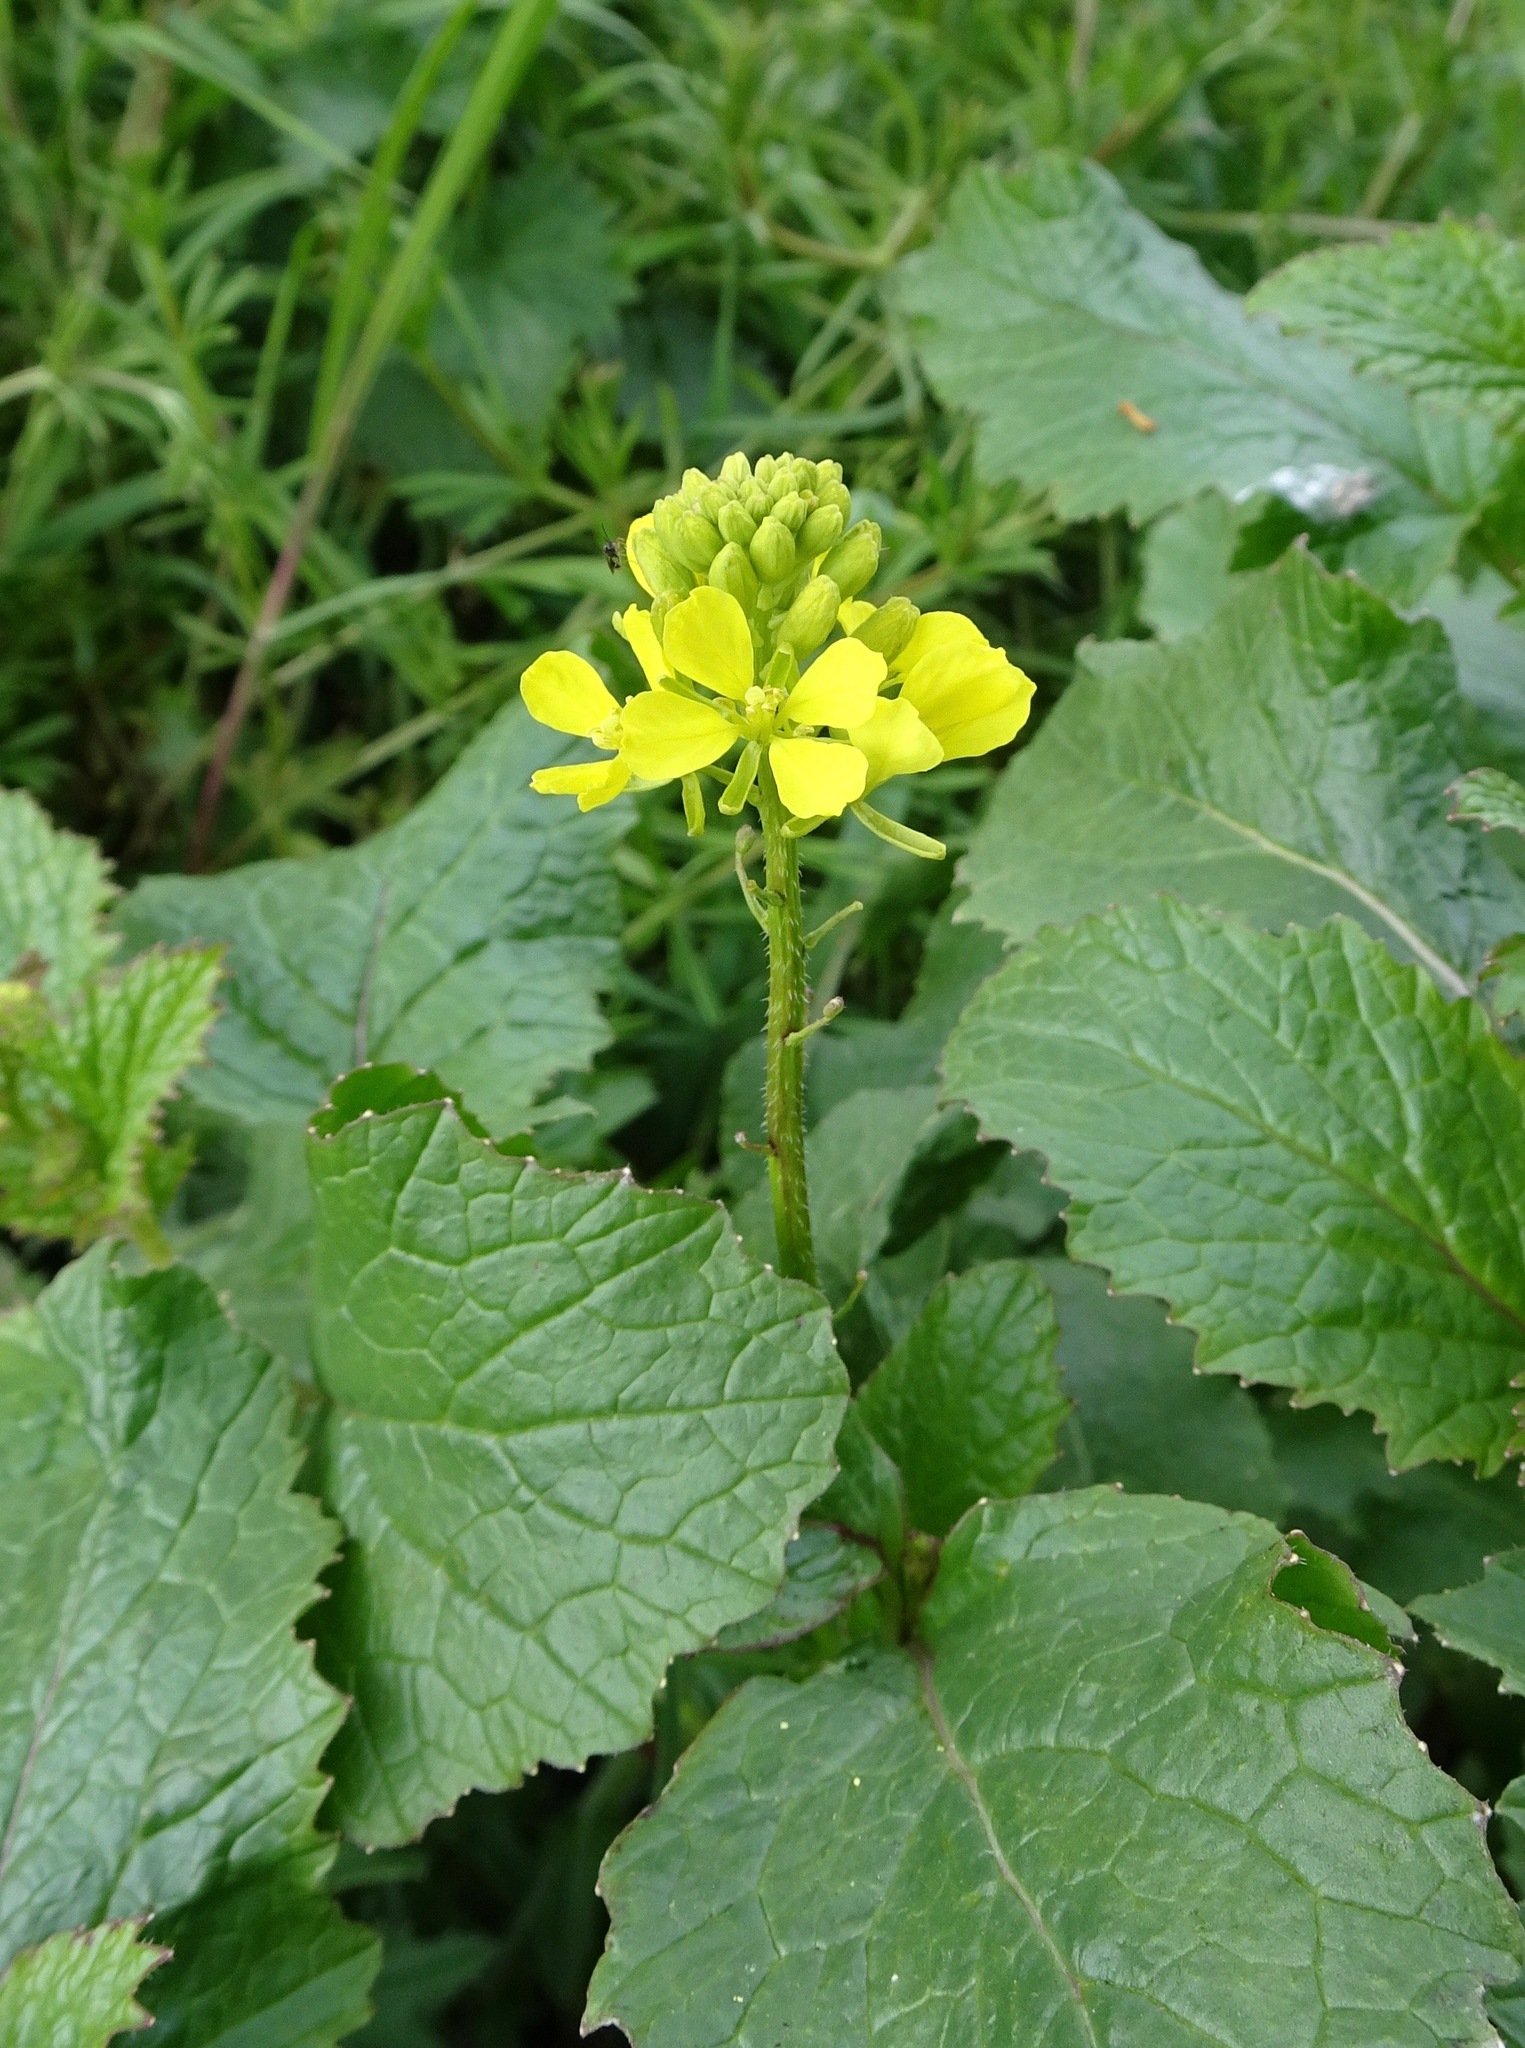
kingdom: Plantae
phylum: Tracheophyta
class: Magnoliopsida
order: Brassicales
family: Brassicaceae
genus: Sinapis
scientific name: Sinapis arvensis
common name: Charlock
